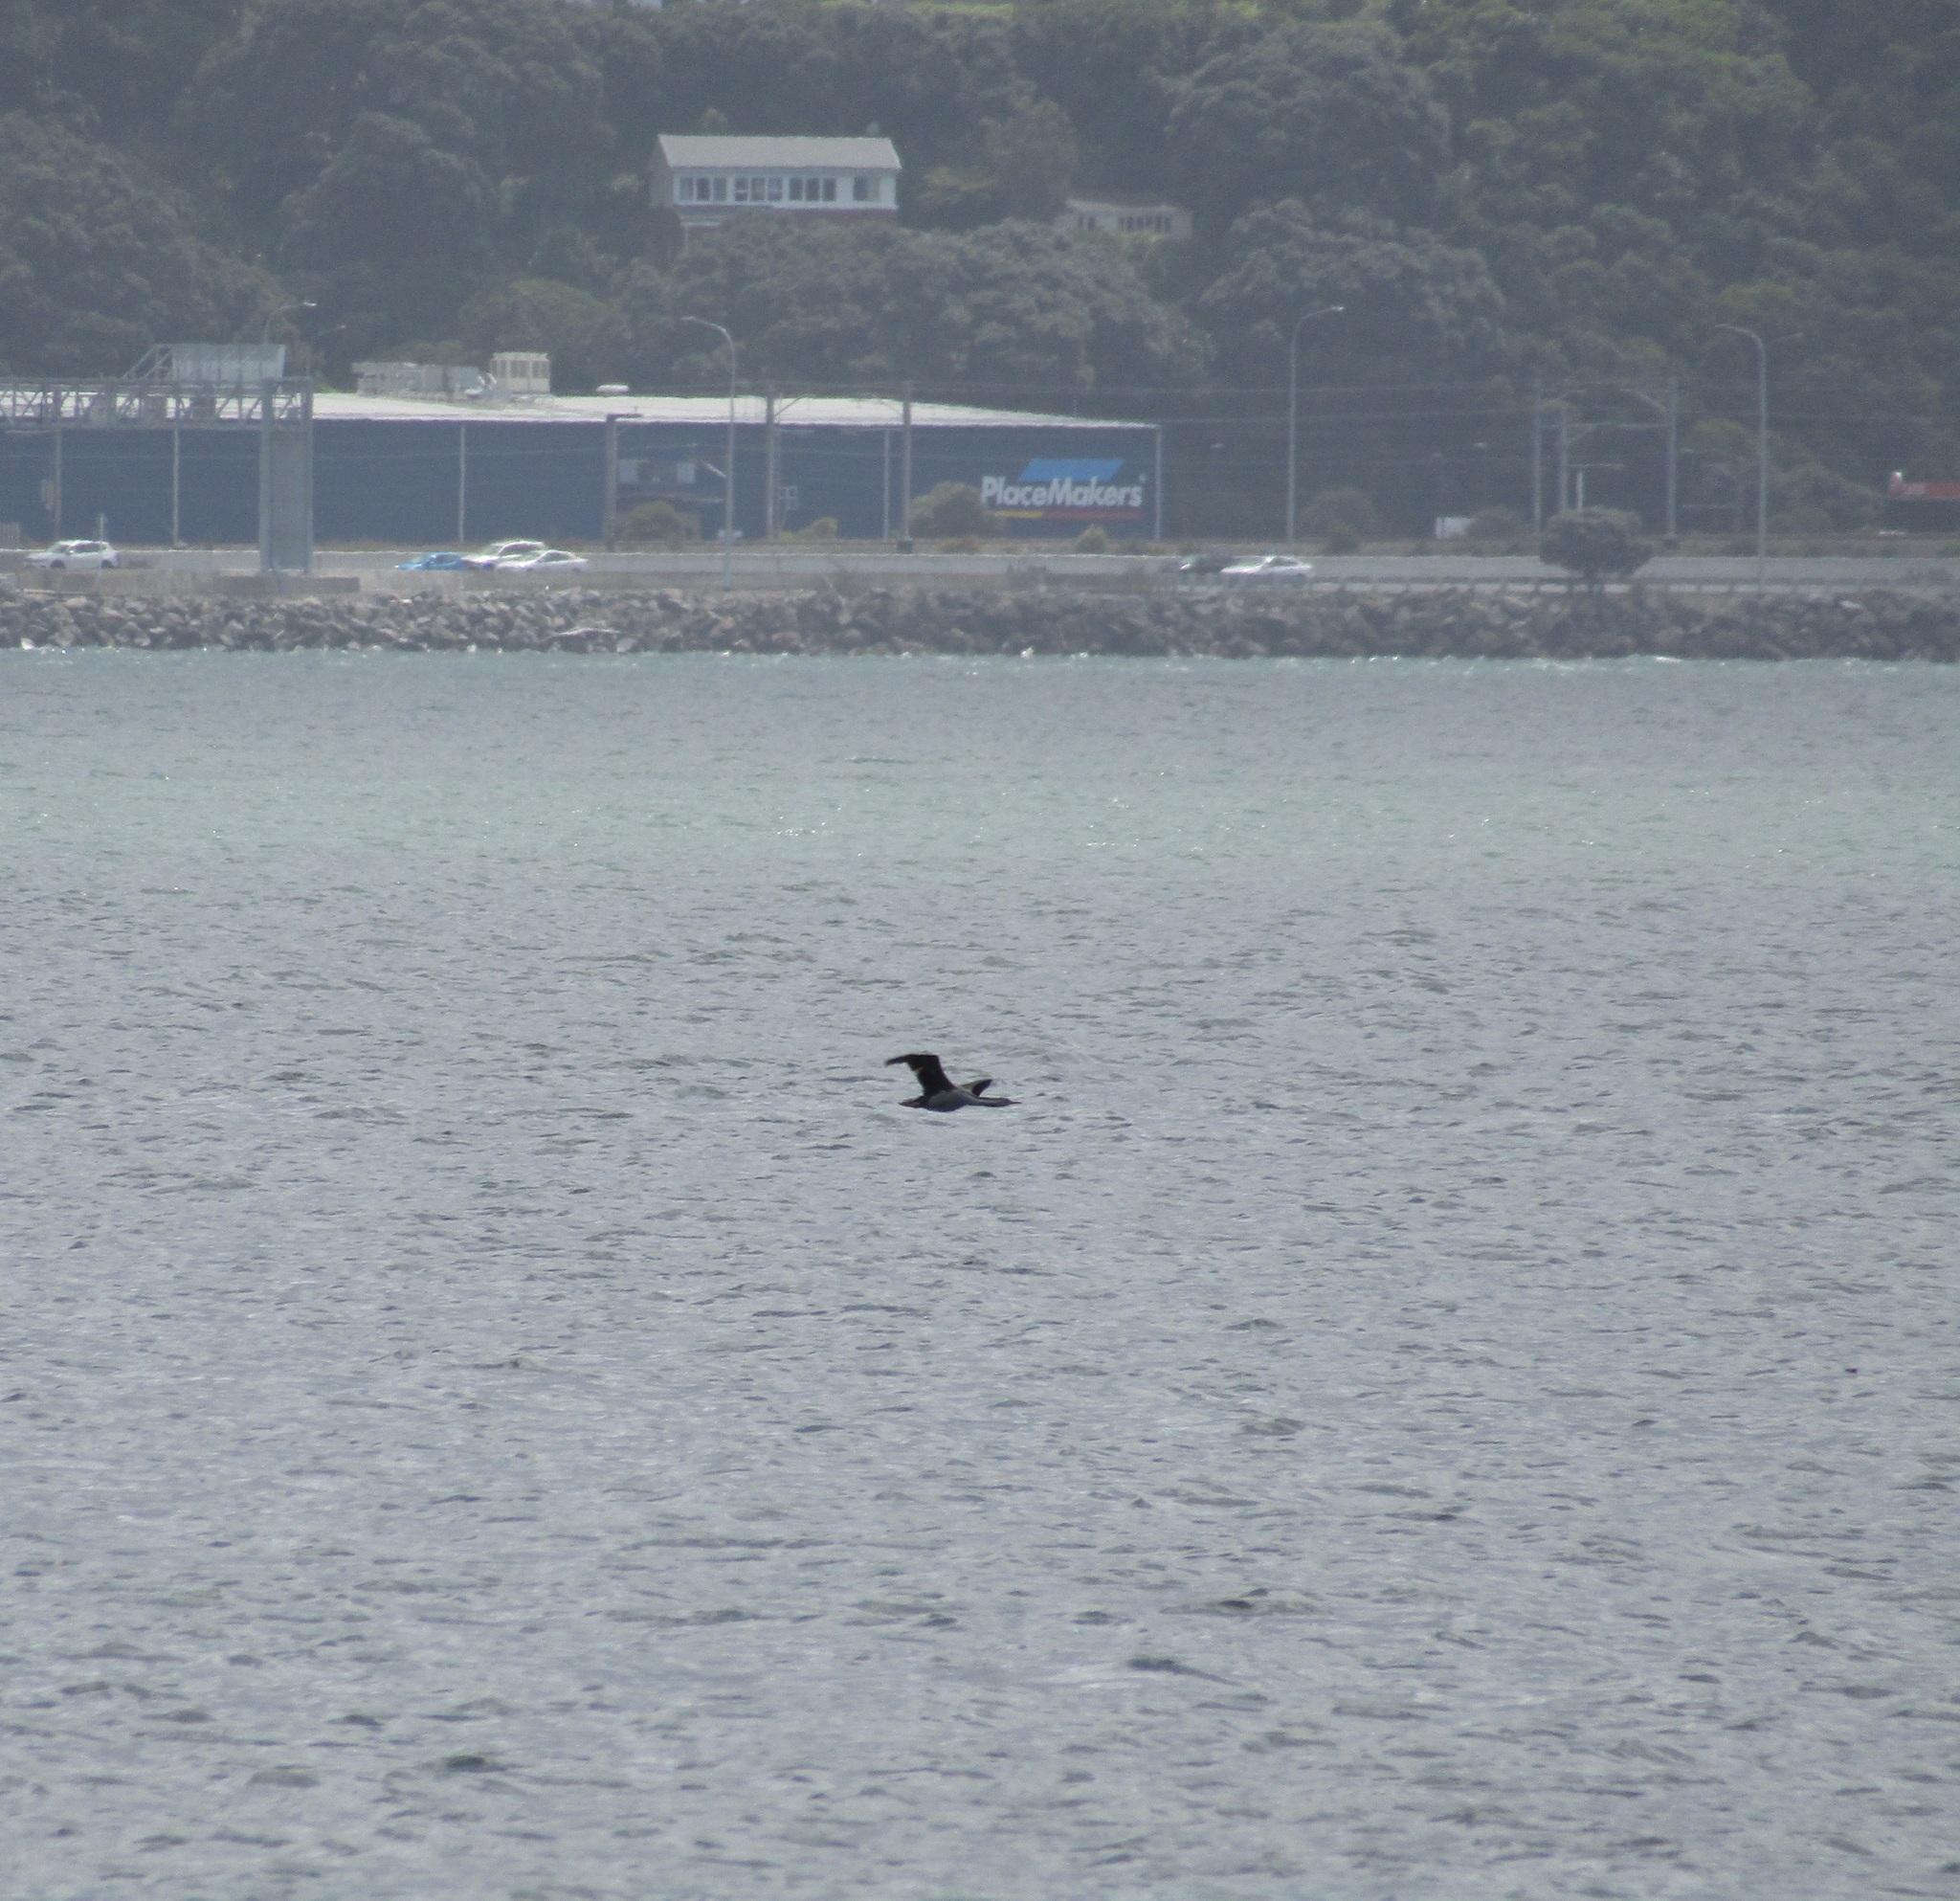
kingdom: Animalia
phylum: Chordata
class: Aves
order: Suliformes
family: Phalacrocoracidae
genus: Phalacrocorax
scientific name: Phalacrocorax punctatus
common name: Spotted shag
